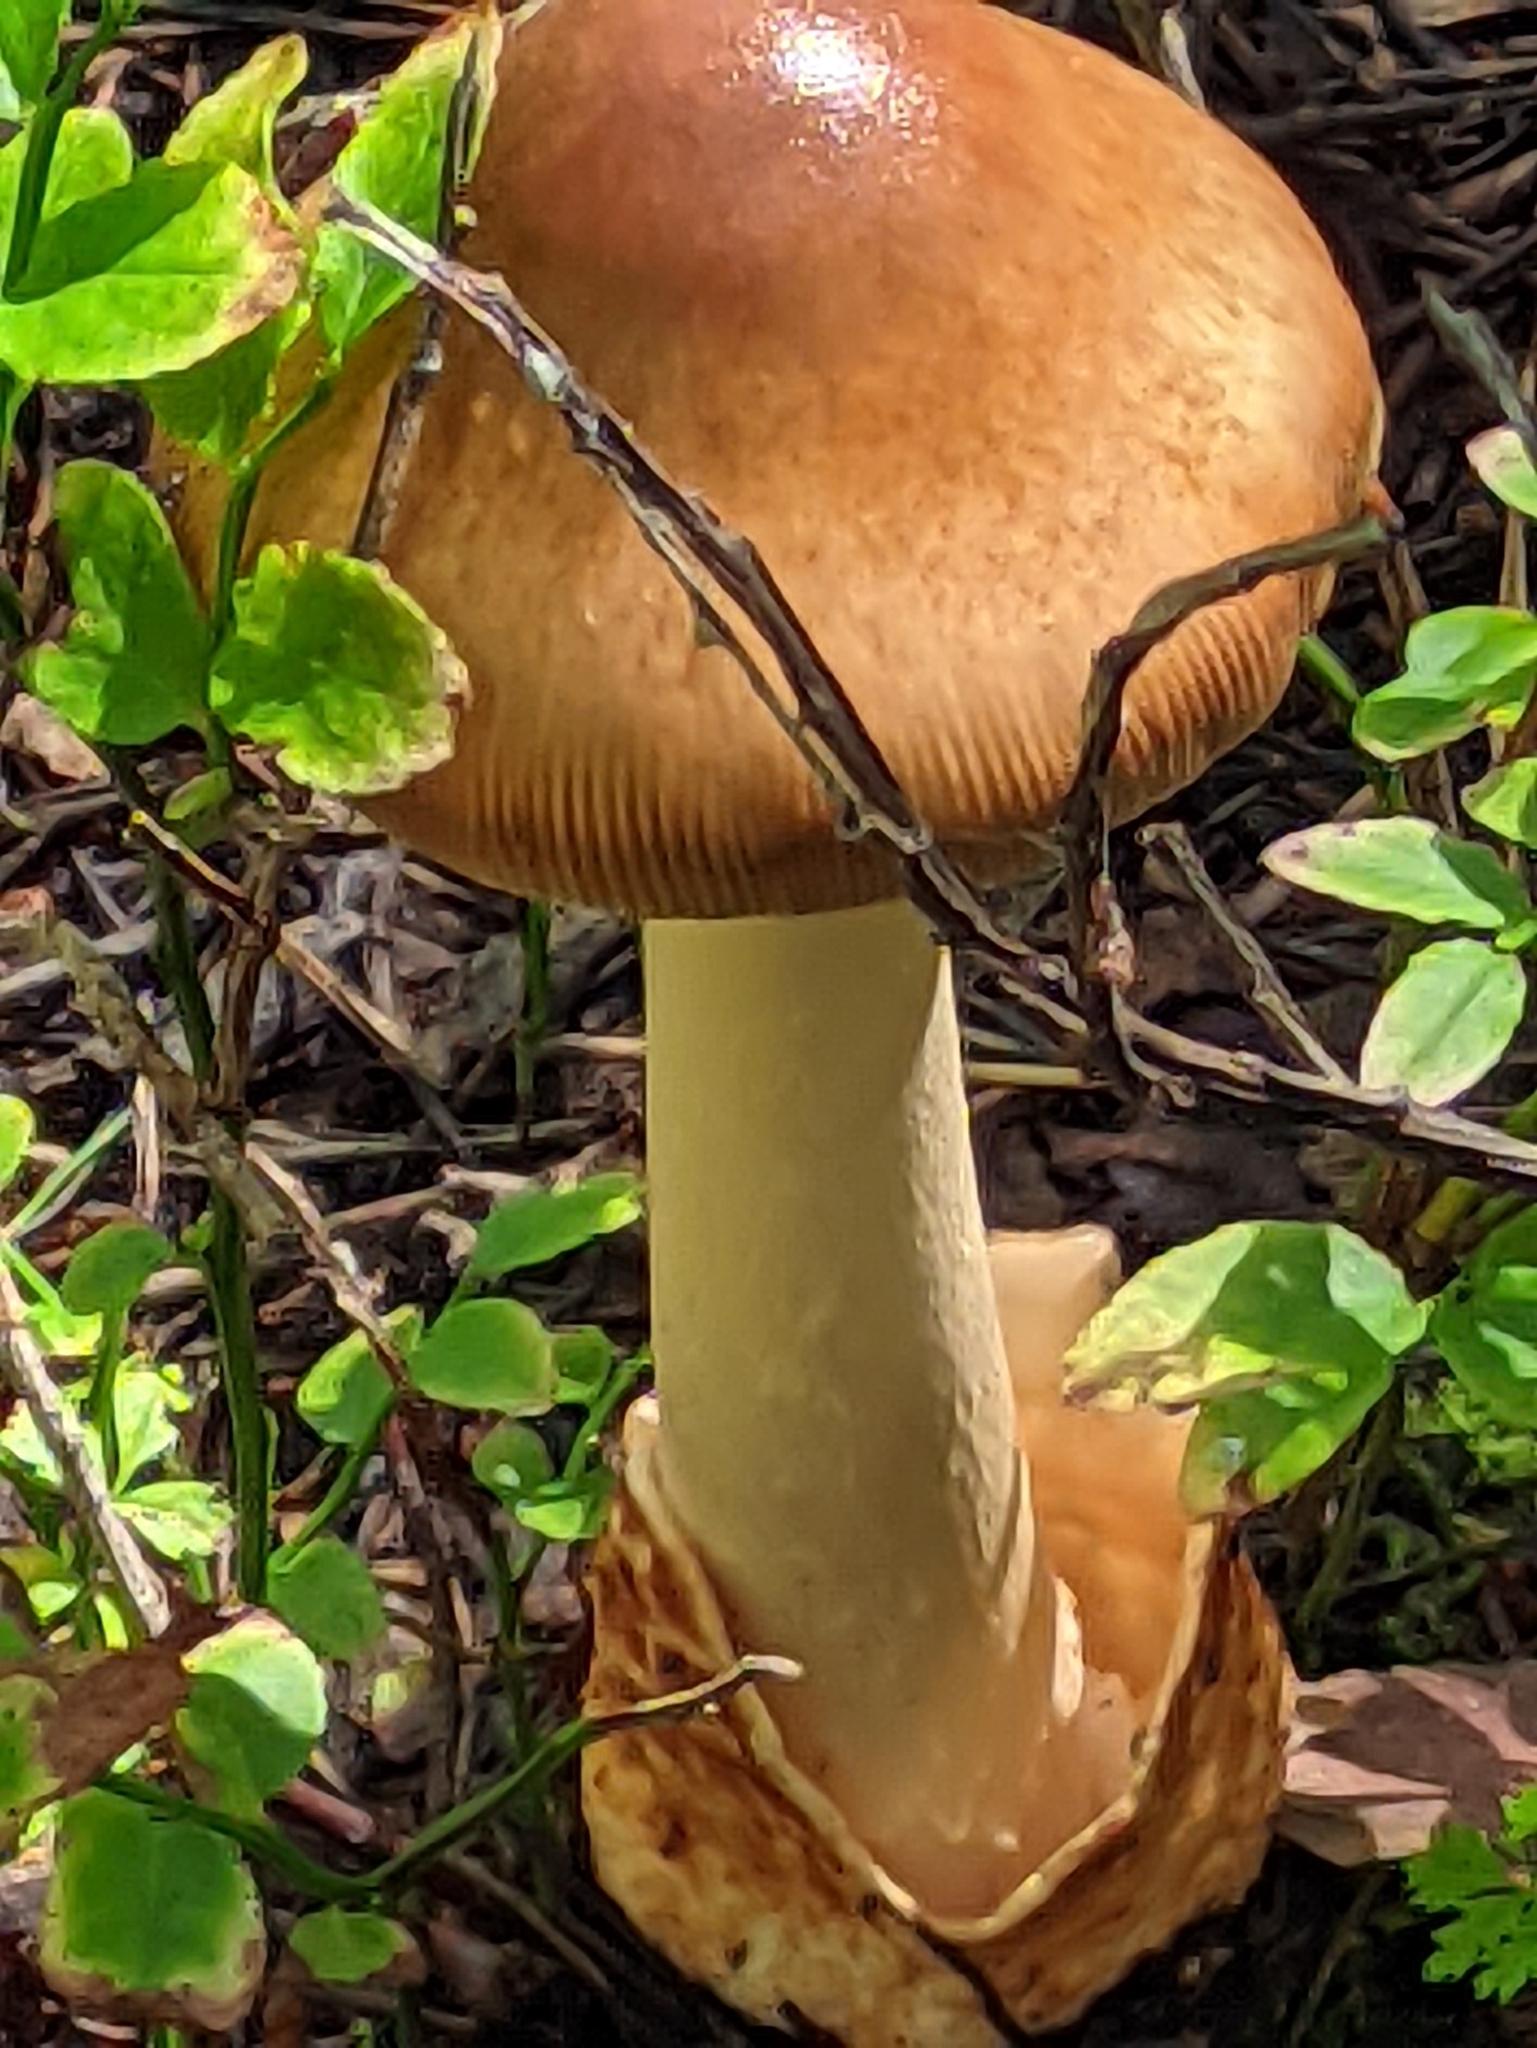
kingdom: Fungi
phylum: Basidiomycota
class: Agaricomycetes
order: Agaricales
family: Amanitaceae
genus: Amanita
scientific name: Amanita fulva
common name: Tawny grisette
